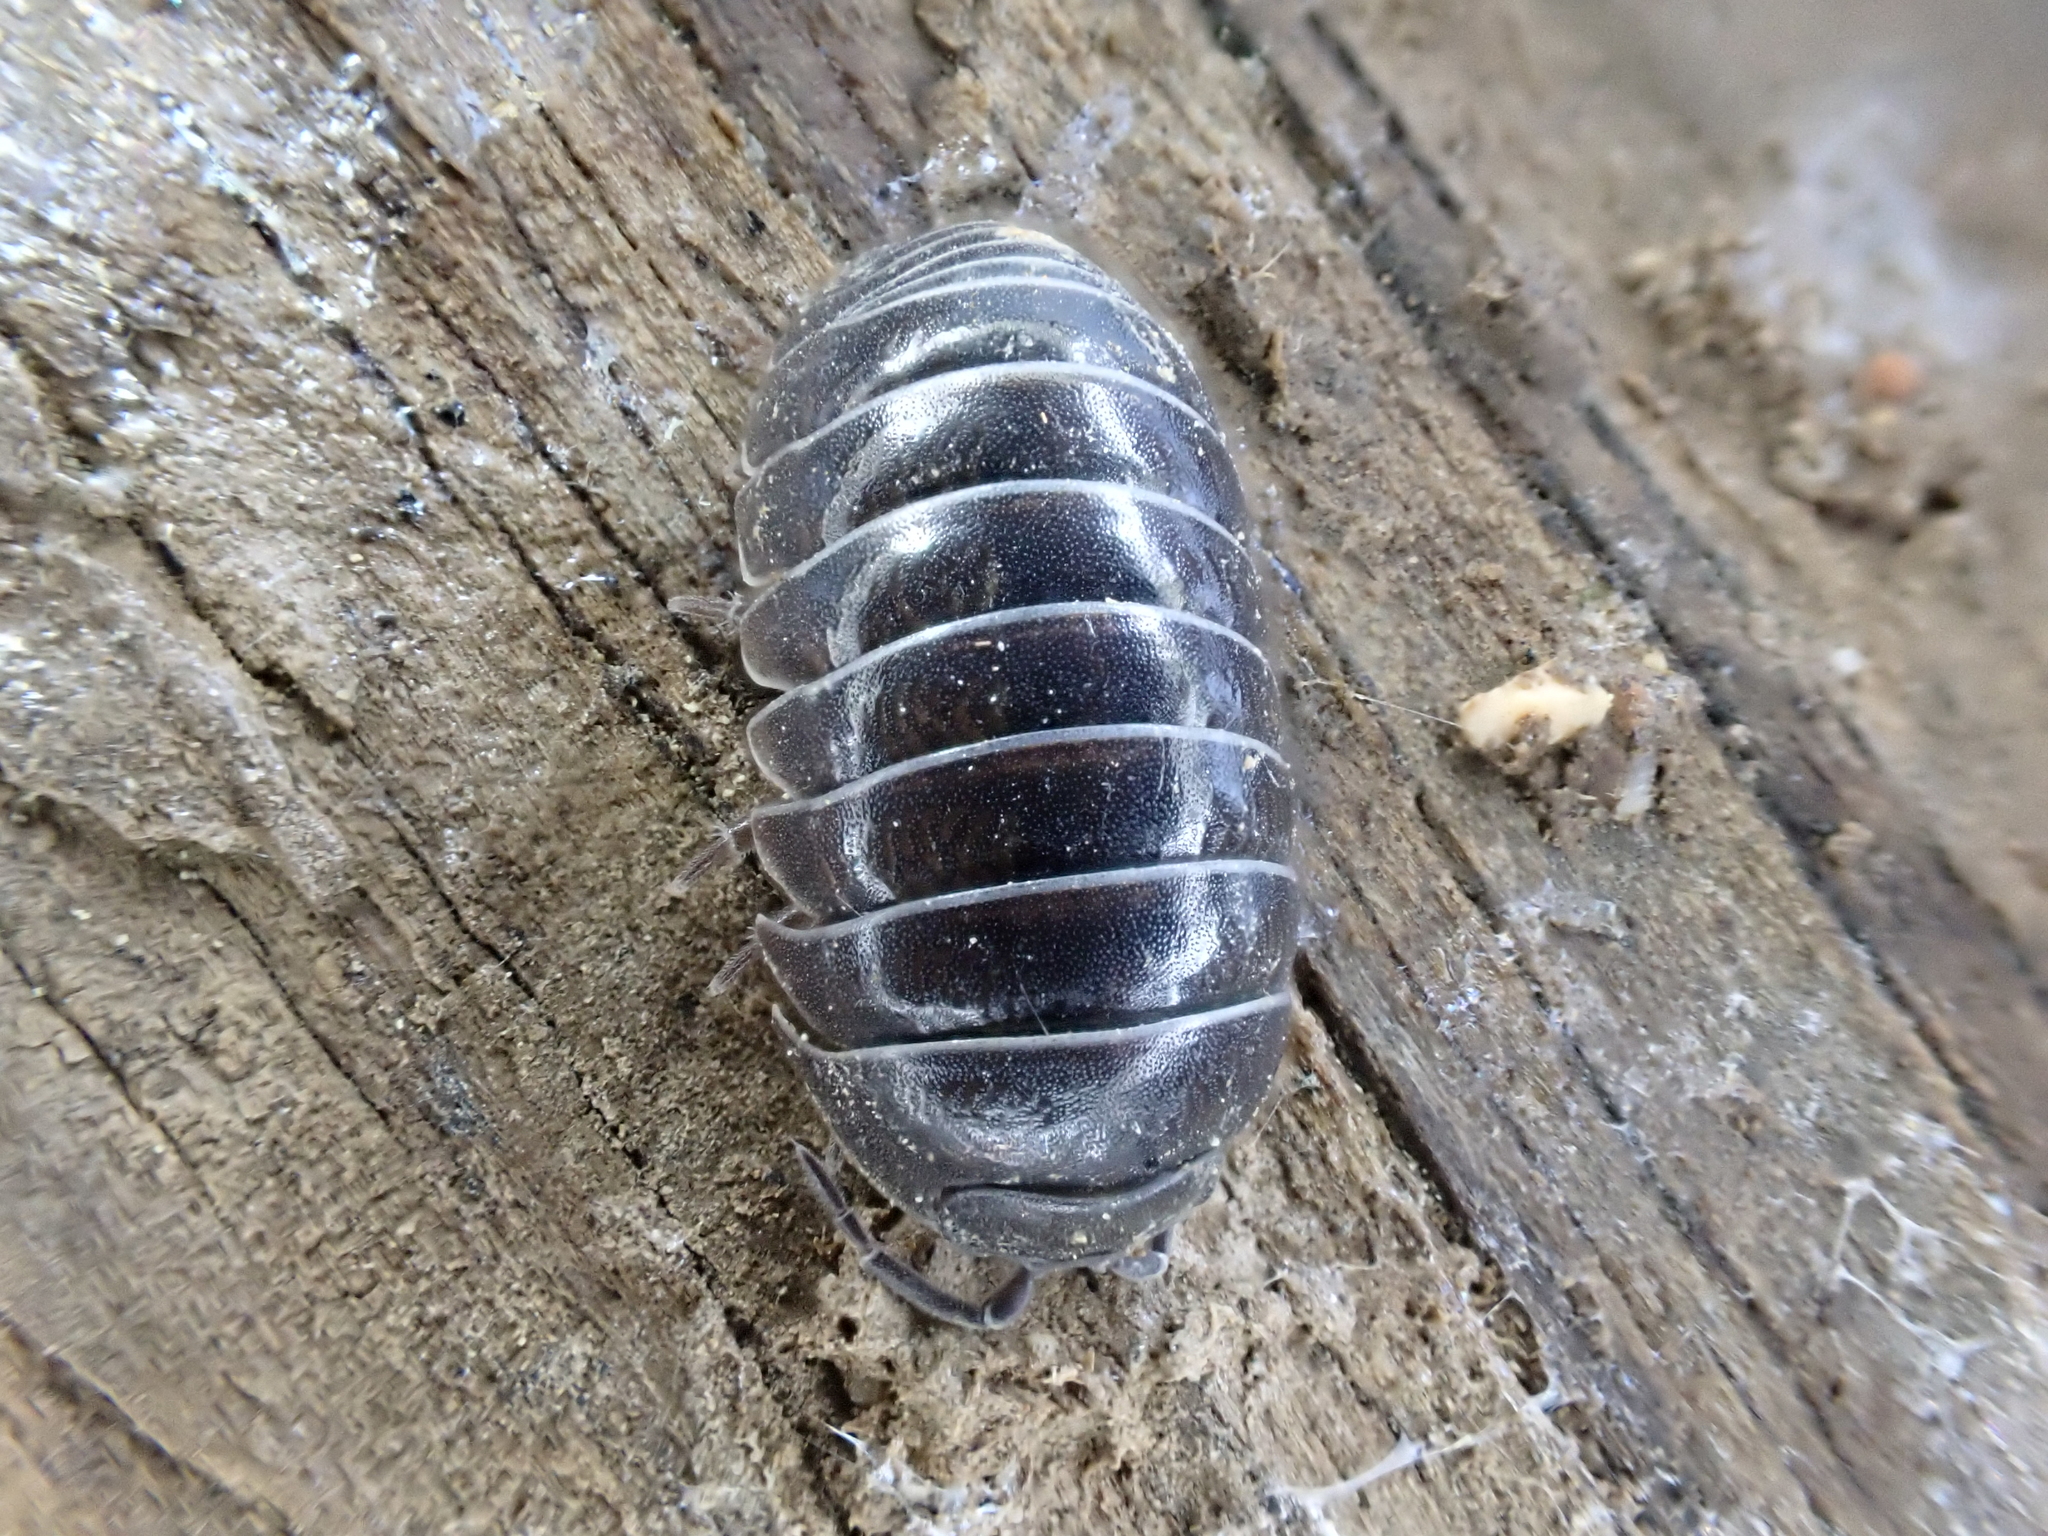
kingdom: Animalia
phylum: Arthropoda
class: Malacostraca
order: Isopoda
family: Armadillidiidae
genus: Armadillidium
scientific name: Armadillidium vulgare
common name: Common pill woodlouse
